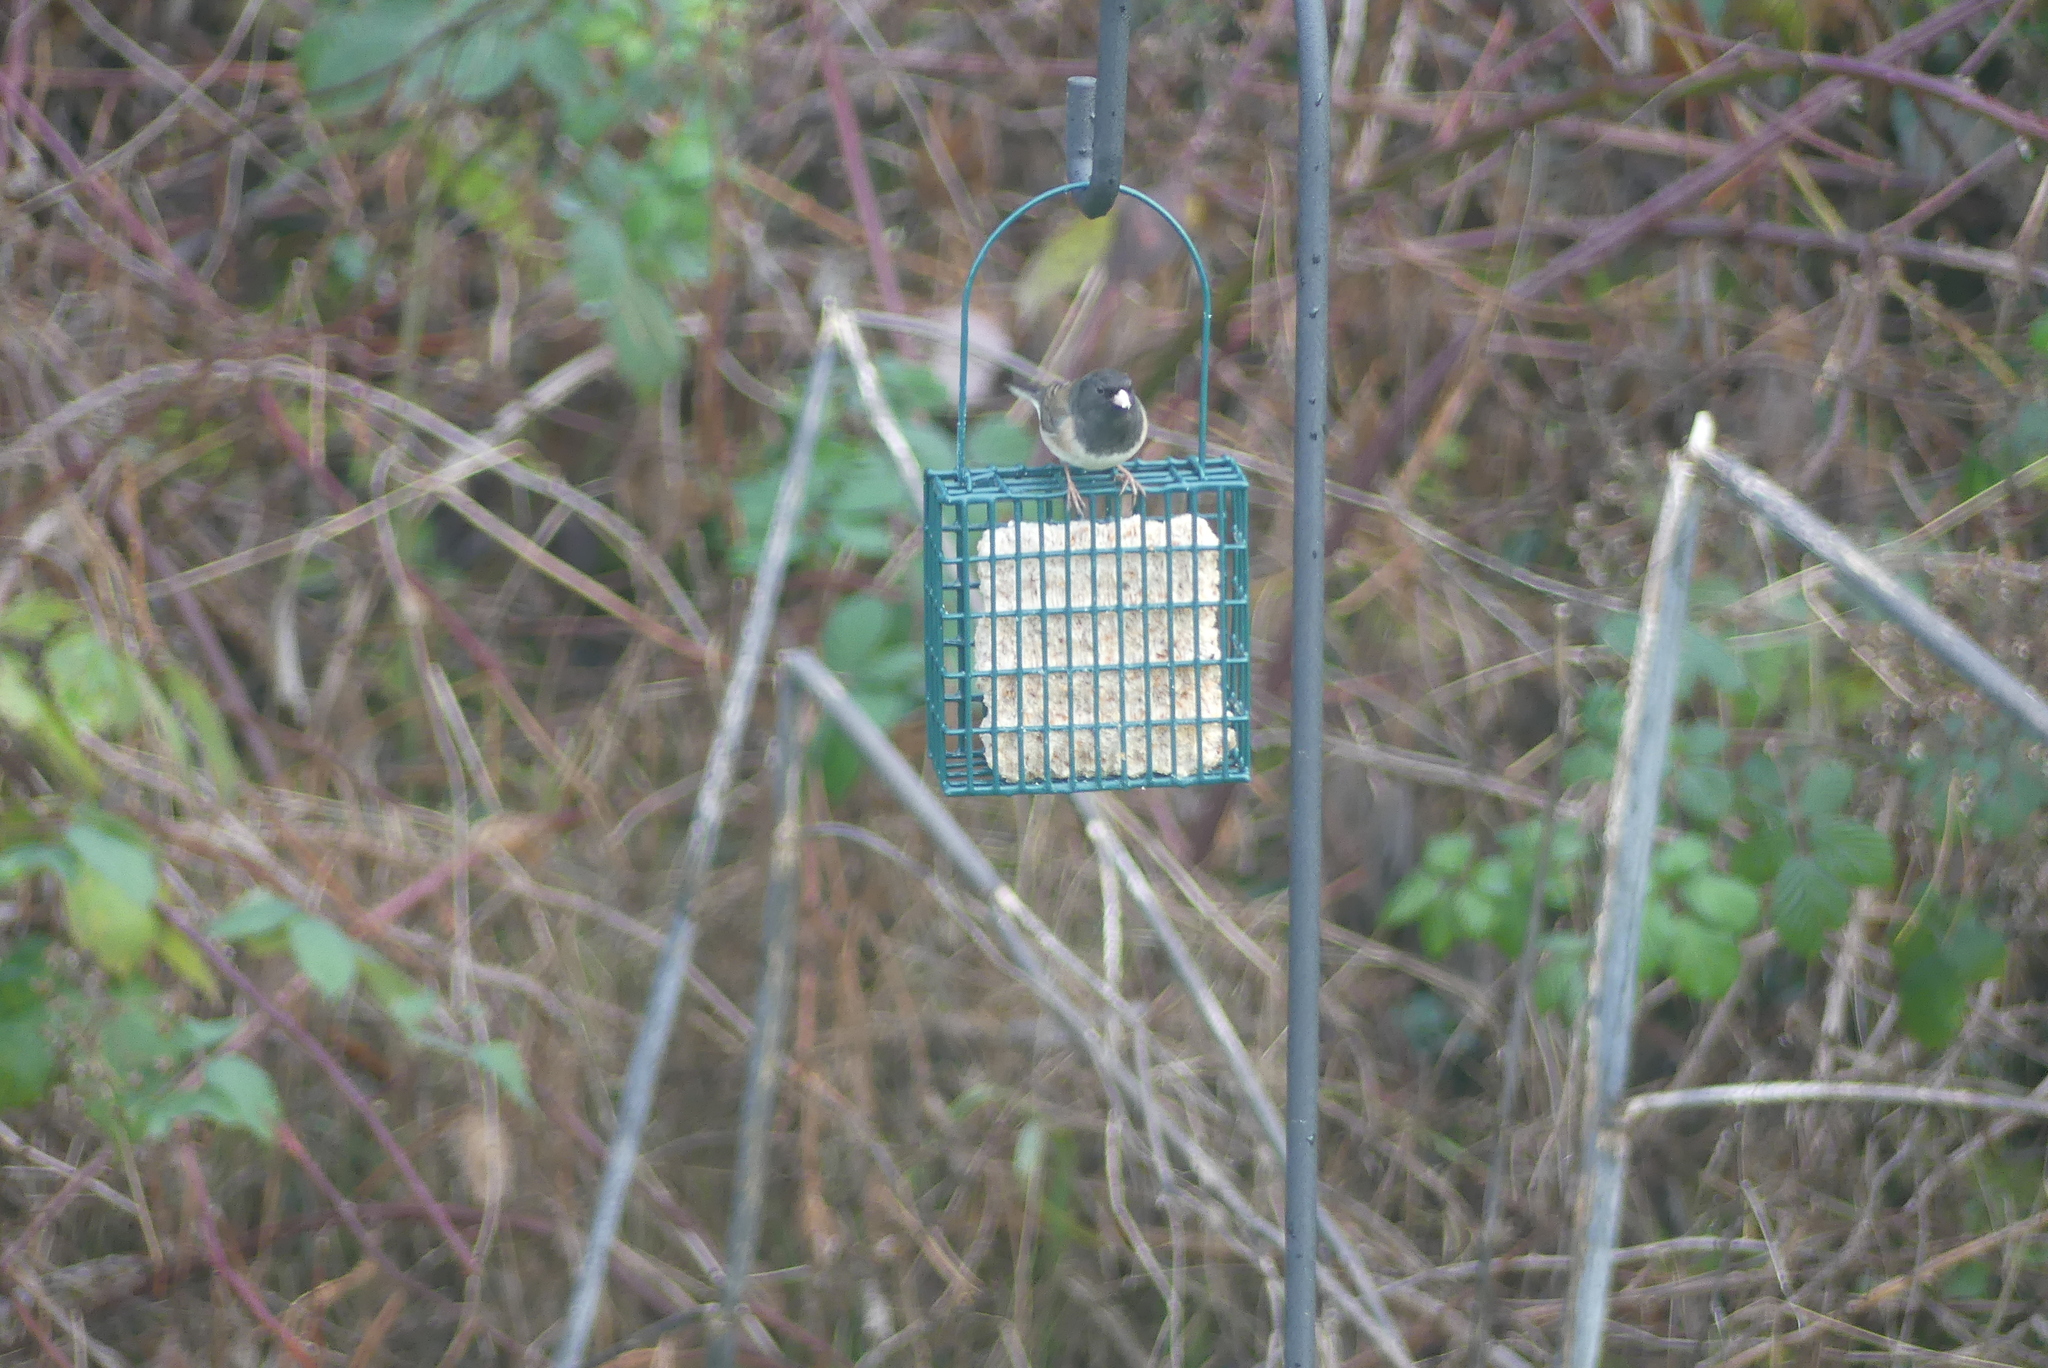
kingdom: Animalia
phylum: Chordata
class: Aves
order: Passeriformes
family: Passerellidae
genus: Junco
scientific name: Junco hyemalis
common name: Dark-eyed junco
